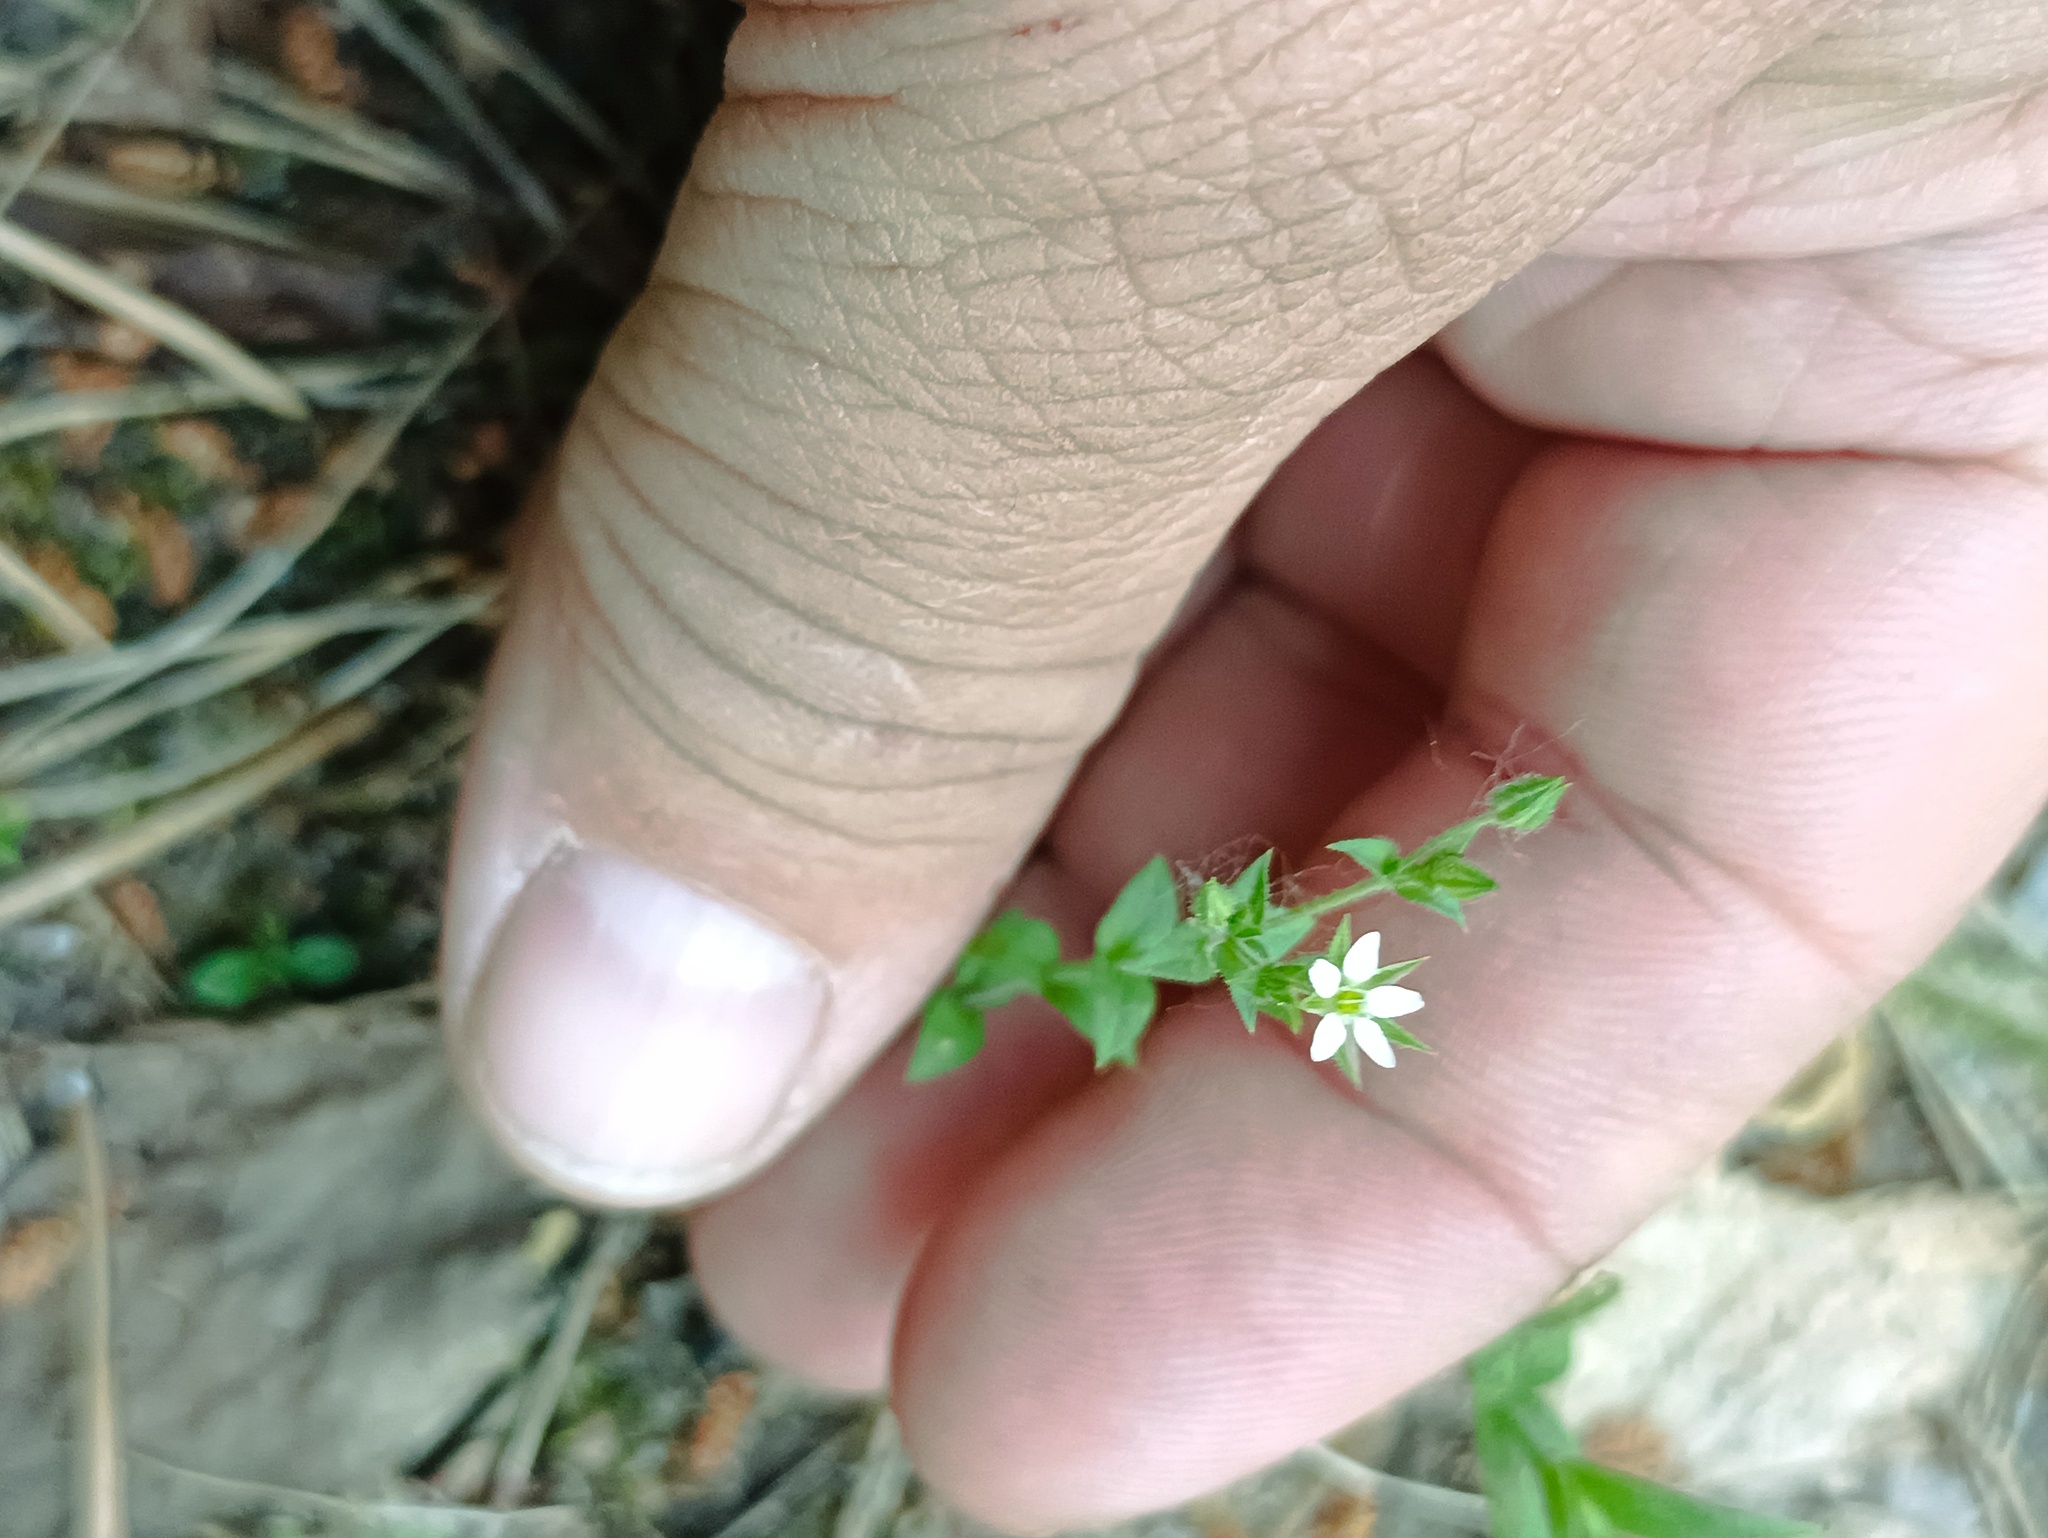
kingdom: Plantae
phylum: Tracheophyta
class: Magnoliopsida
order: Caryophyllales
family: Caryophyllaceae
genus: Arenaria
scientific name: Arenaria serpyllifolia
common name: Thyme-leaved sandwort
